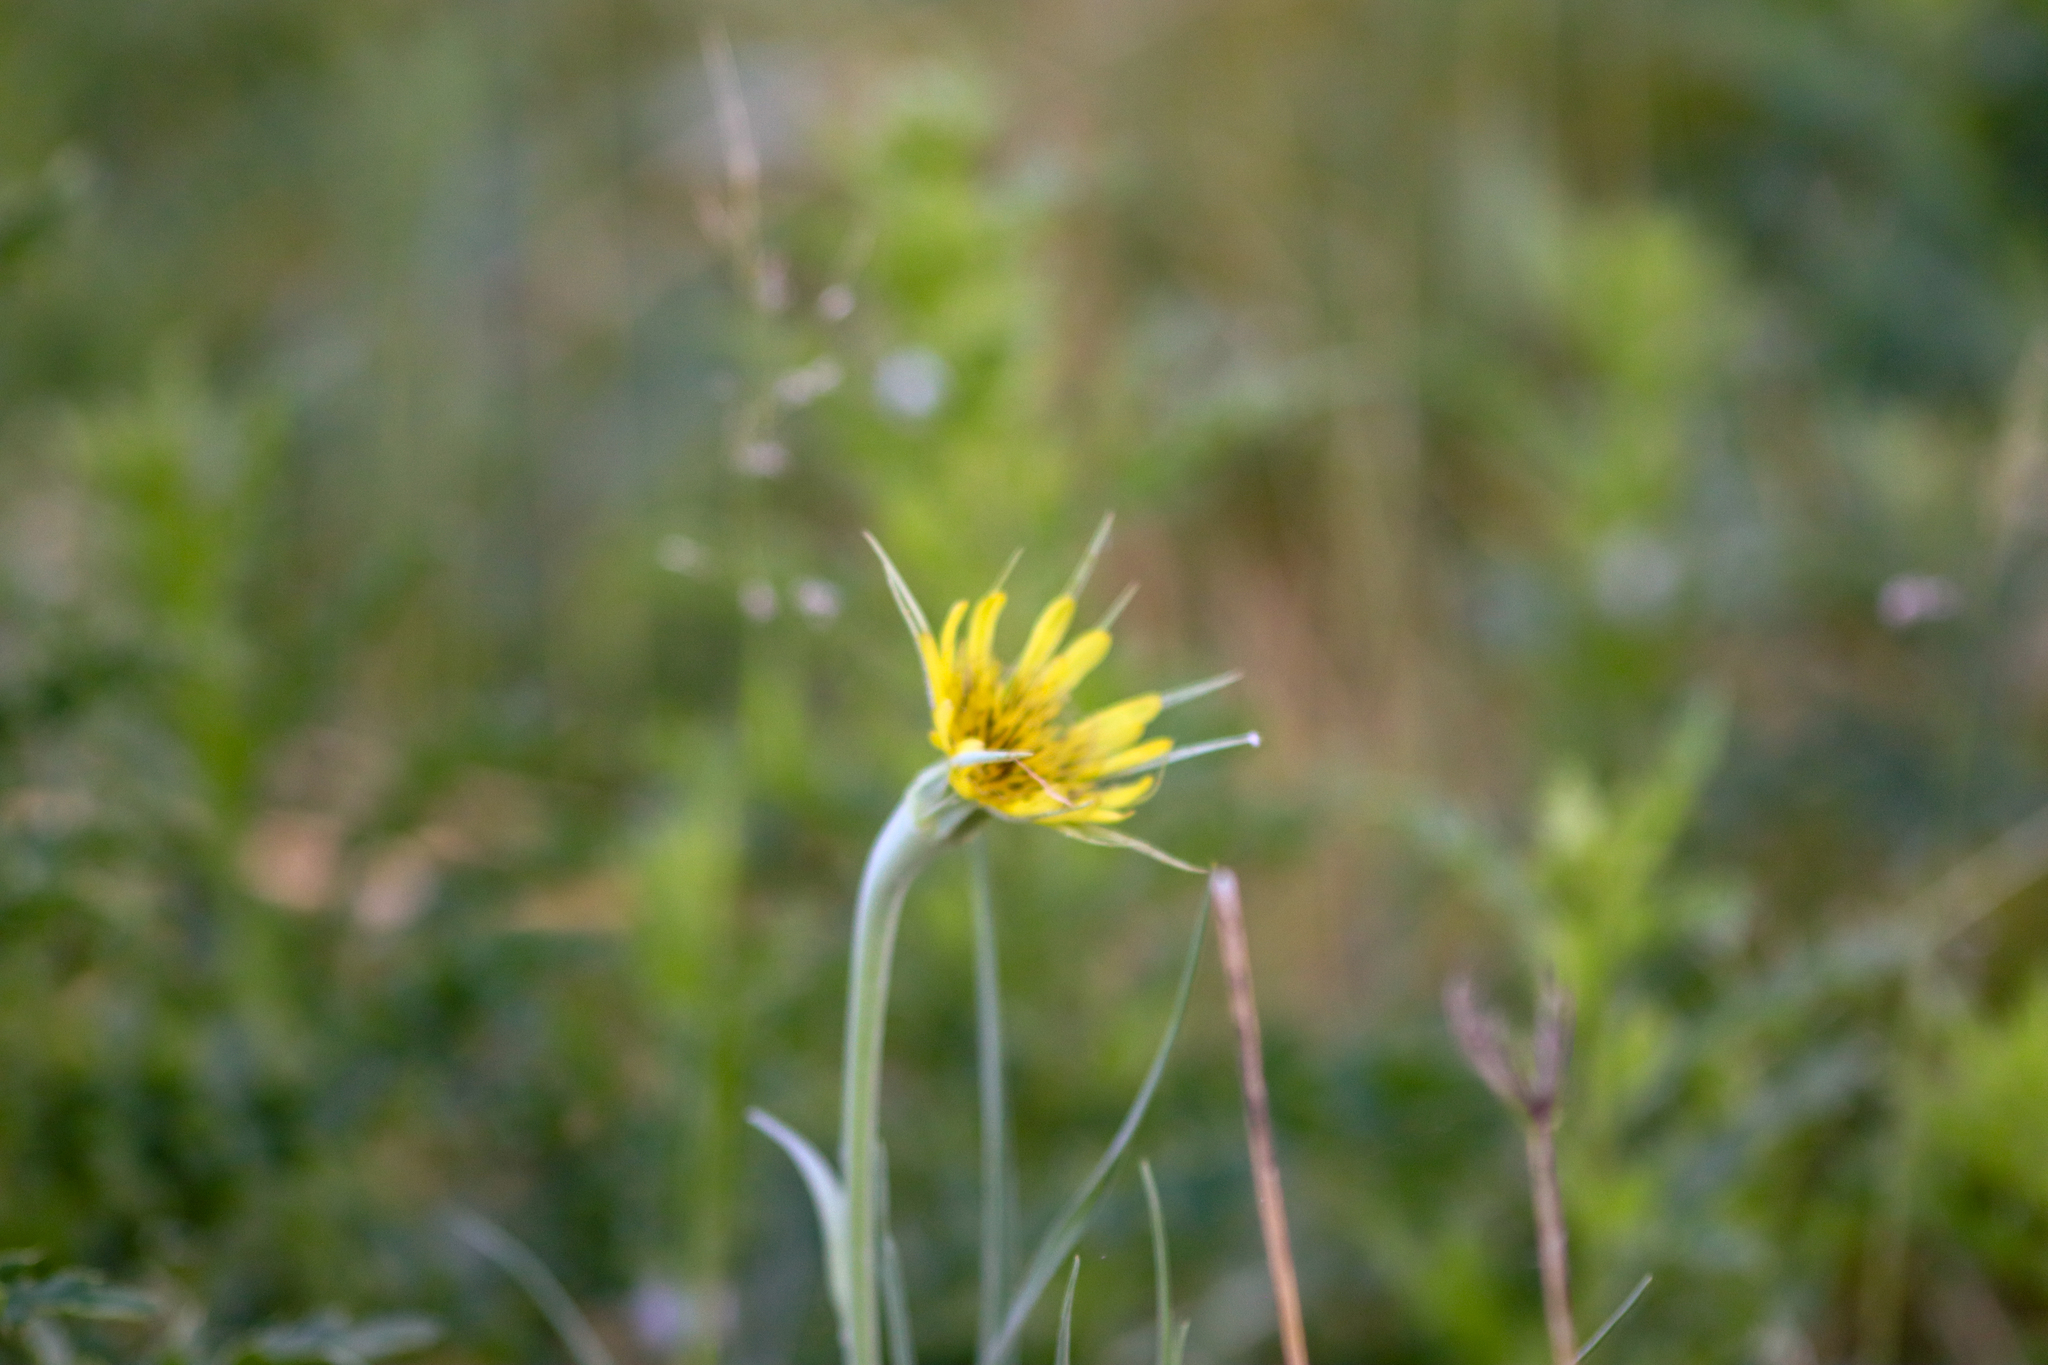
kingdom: Plantae
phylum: Tracheophyta
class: Magnoliopsida
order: Asterales
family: Asteraceae
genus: Tragopogon
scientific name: Tragopogon dubius
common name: Yellow salsify
